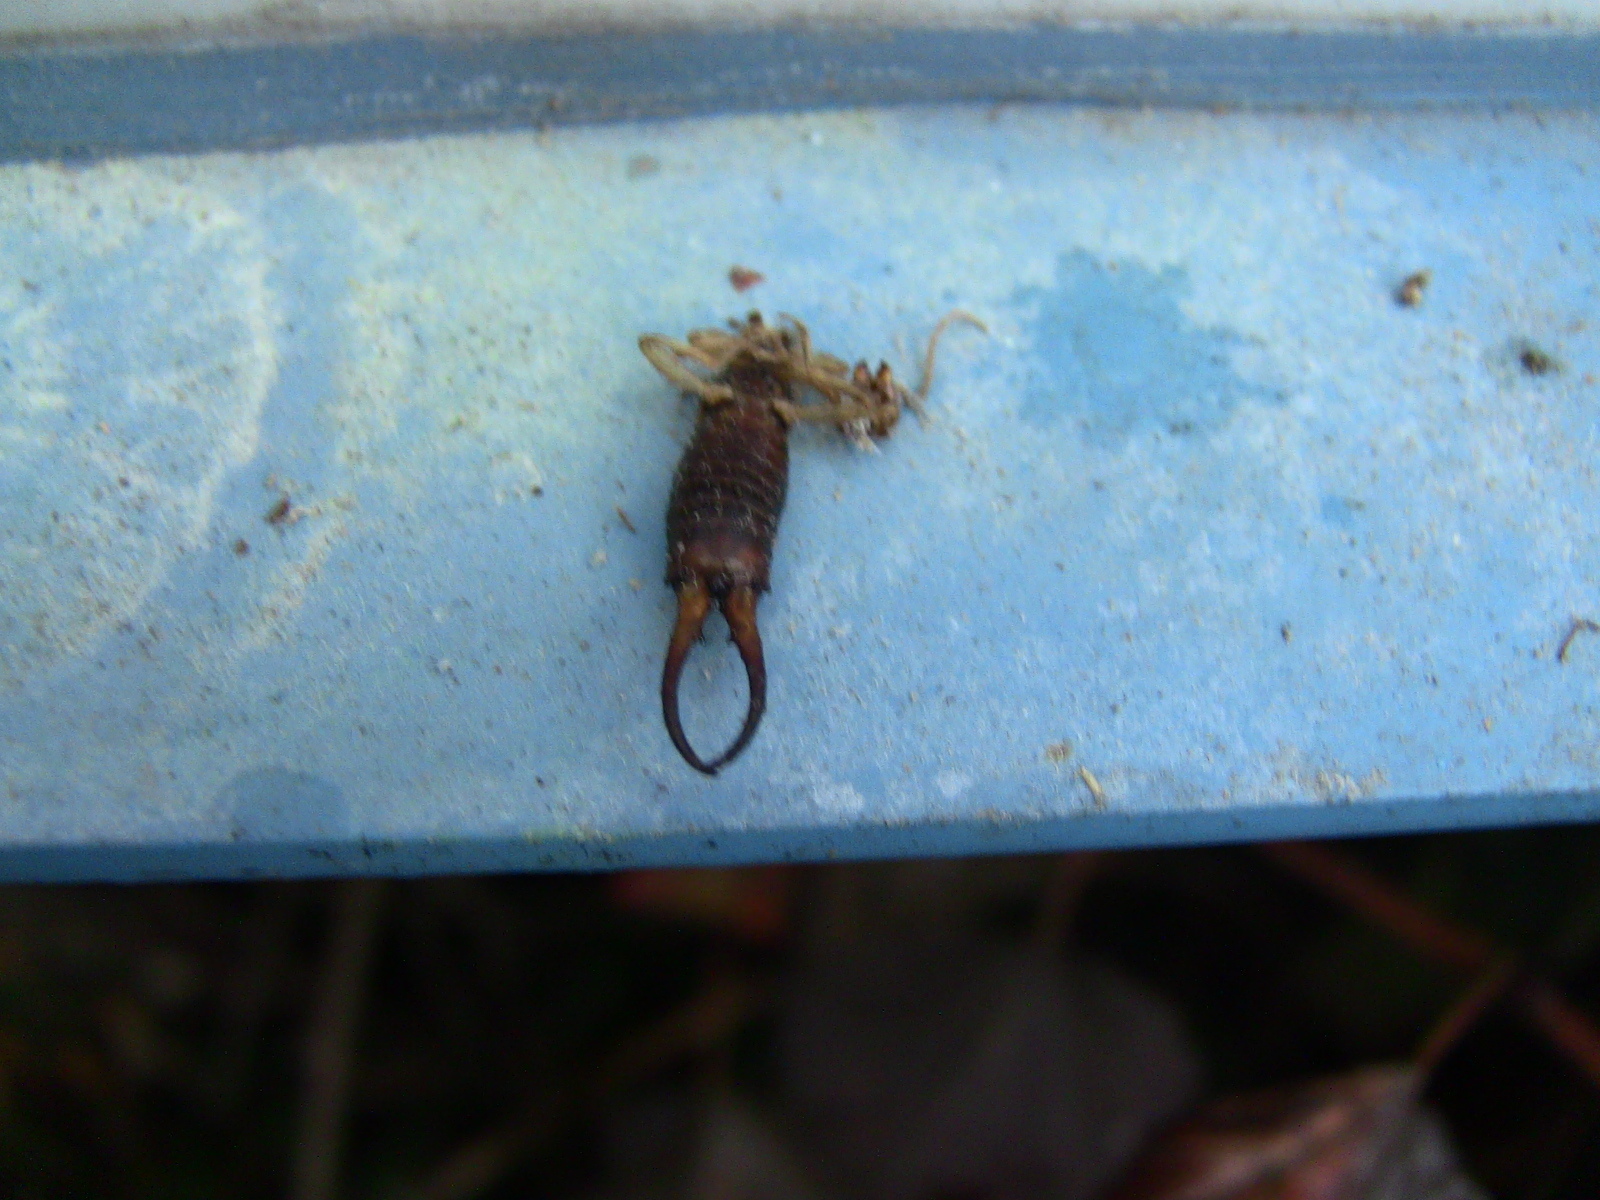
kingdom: Animalia
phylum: Arthropoda
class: Insecta
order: Dermaptera
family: Forficulidae
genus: Forficula
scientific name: Forficula
